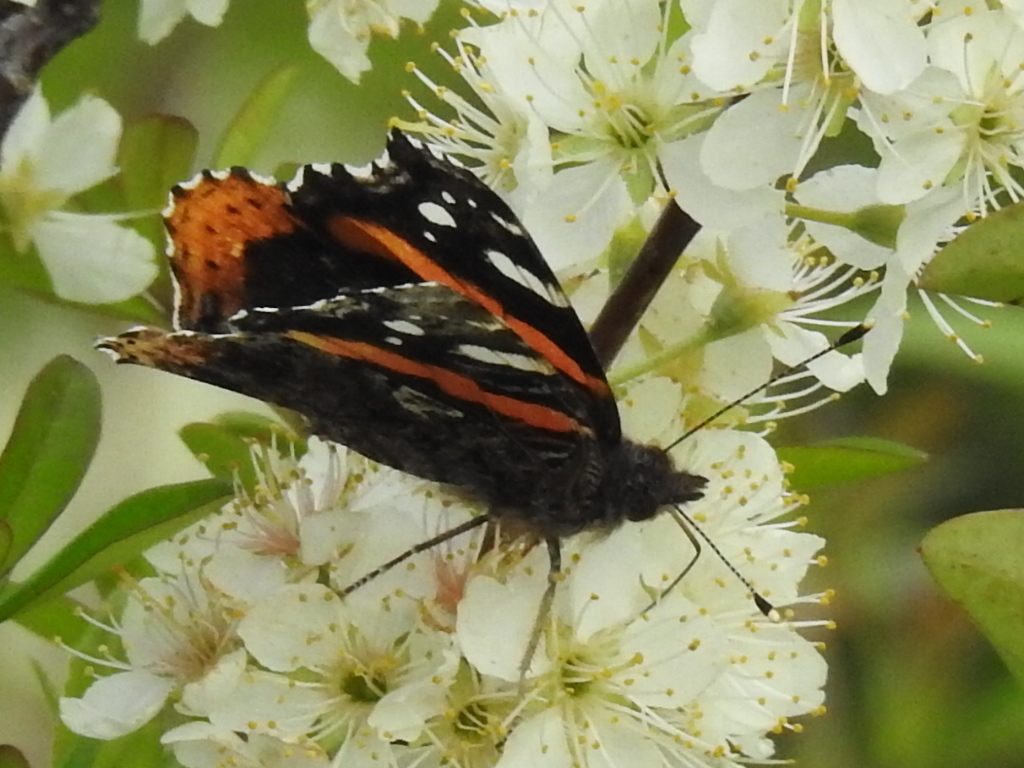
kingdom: Animalia
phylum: Arthropoda
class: Insecta
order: Lepidoptera
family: Nymphalidae
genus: Vanessa
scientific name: Vanessa atalanta
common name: Red admiral
